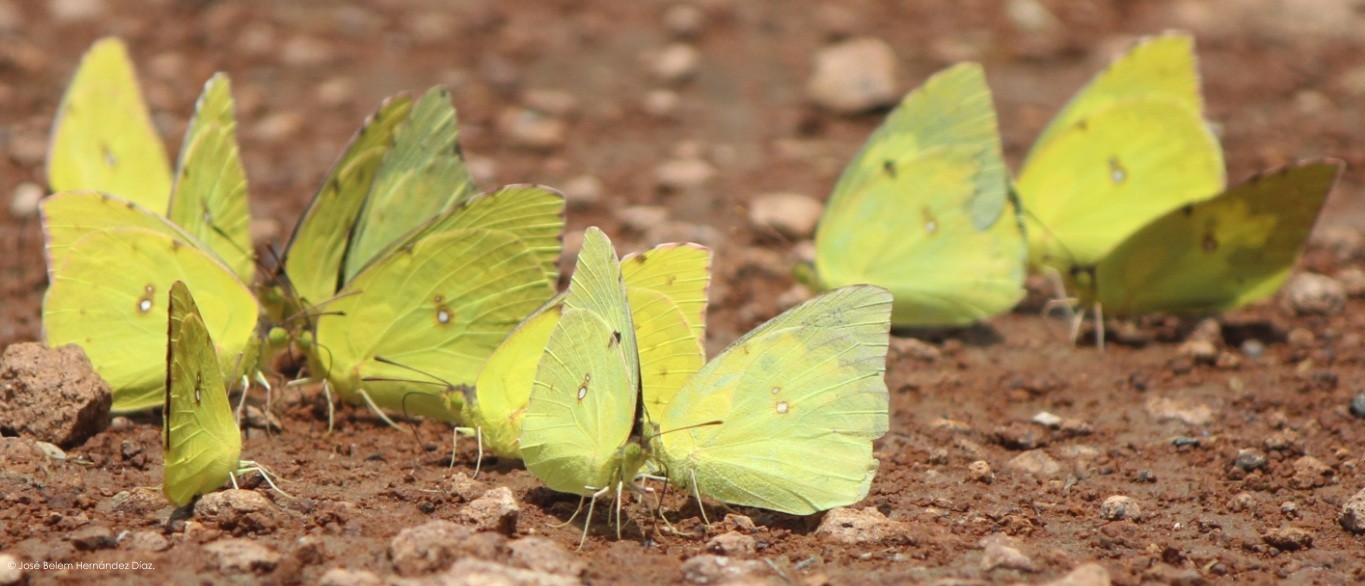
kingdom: Animalia
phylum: Arthropoda
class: Insecta
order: Lepidoptera
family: Pieridae
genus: Zerene
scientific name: Zerene cesonia
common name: Southern dogface
